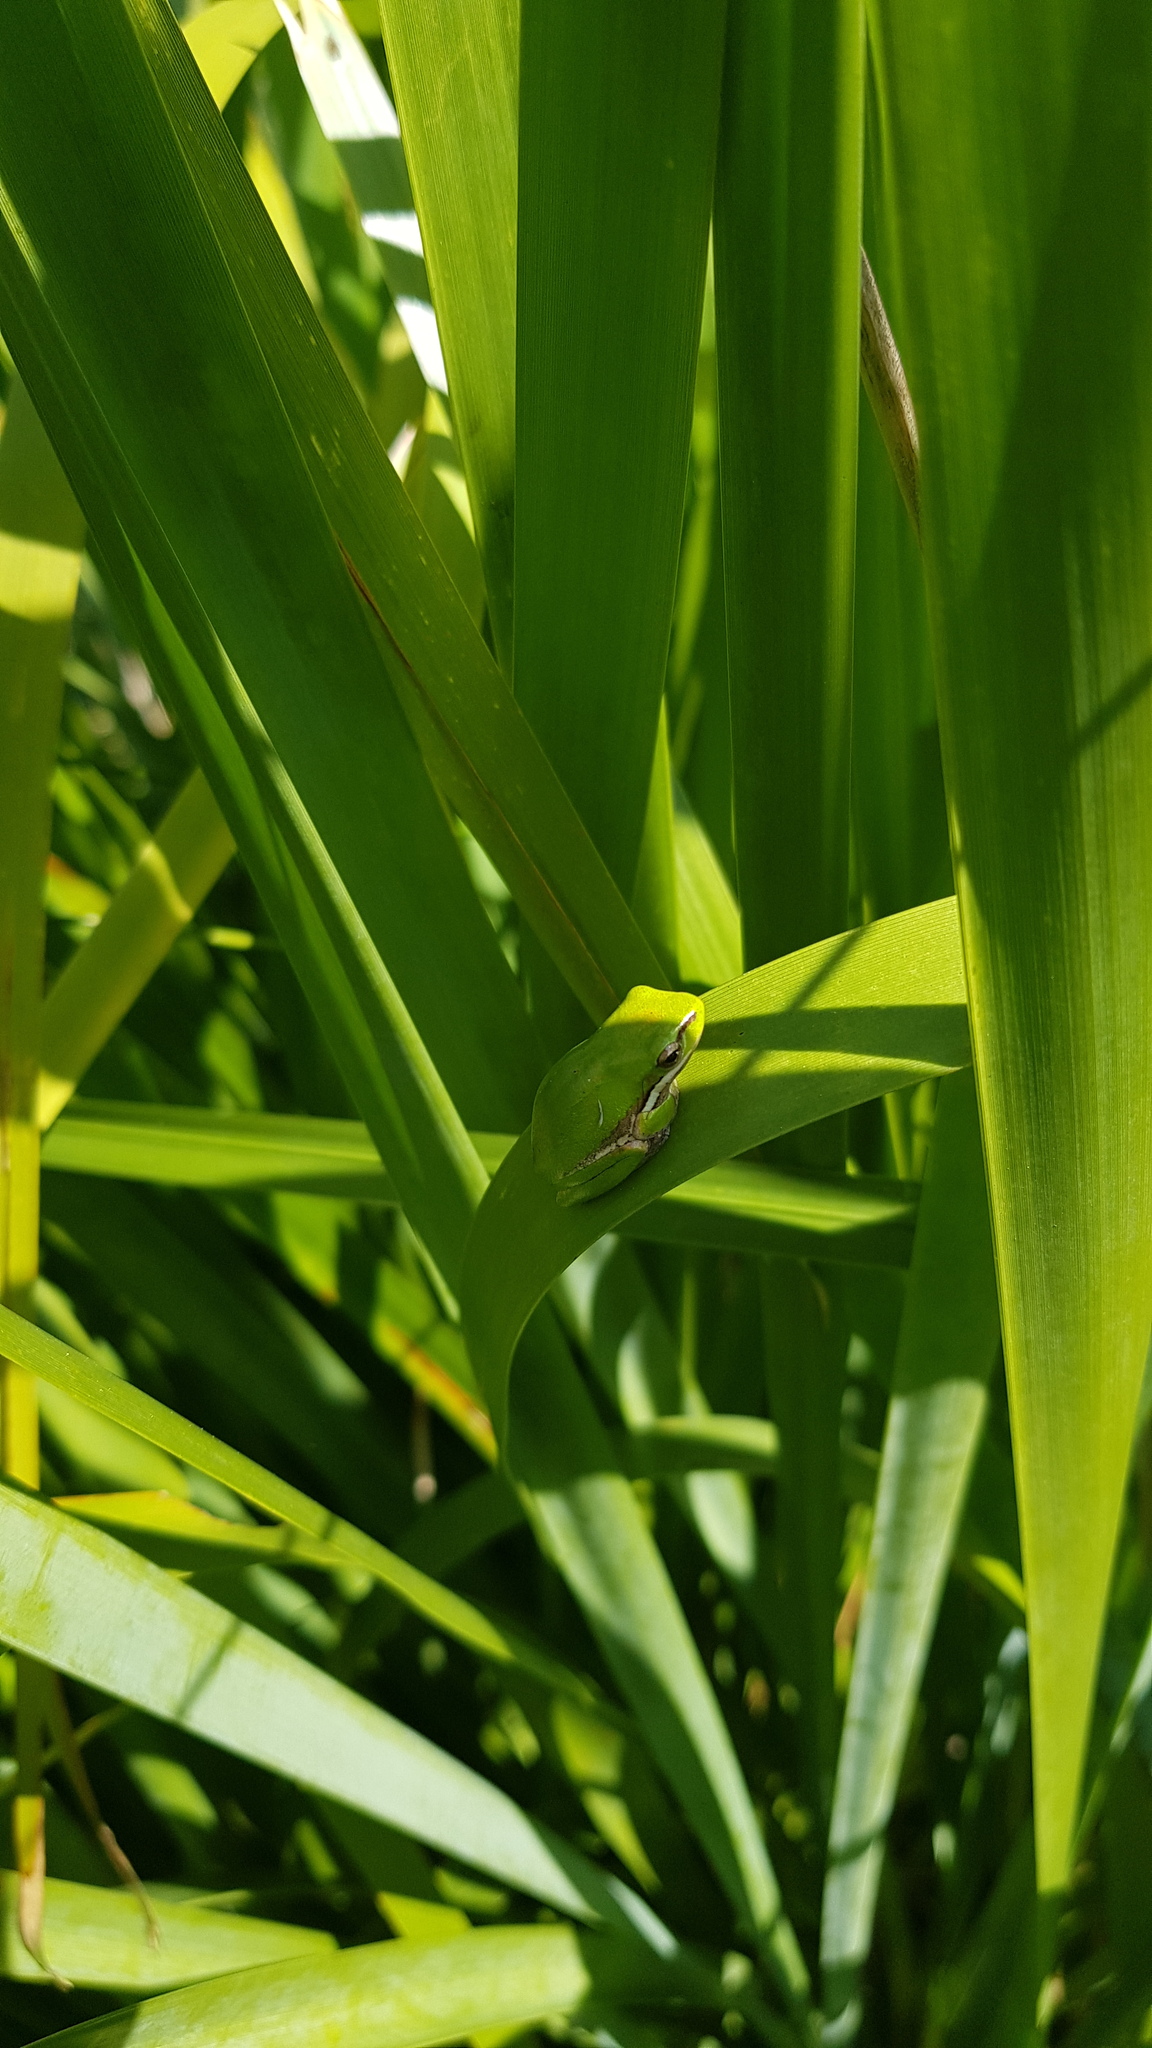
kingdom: Animalia
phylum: Chordata
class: Amphibia
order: Anura
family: Pelodryadidae
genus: Litoria
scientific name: Litoria fallax
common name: Eastern dwarf treefrog
